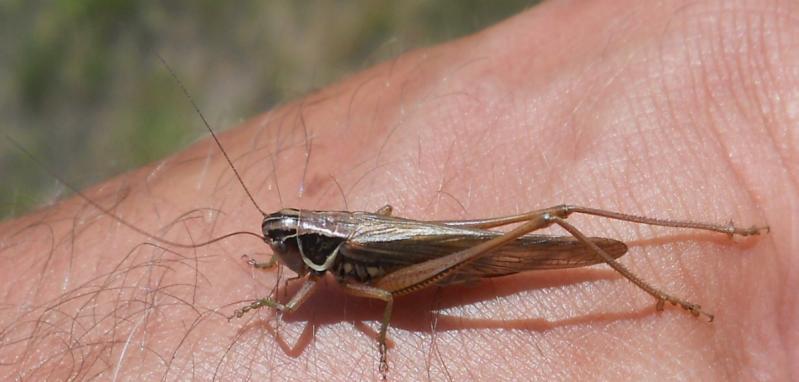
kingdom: Animalia
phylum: Arthropoda
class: Insecta
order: Orthoptera
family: Tettigoniidae
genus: Roeseliana
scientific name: Roeseliana roeselii
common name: Roesel's bush cricket
